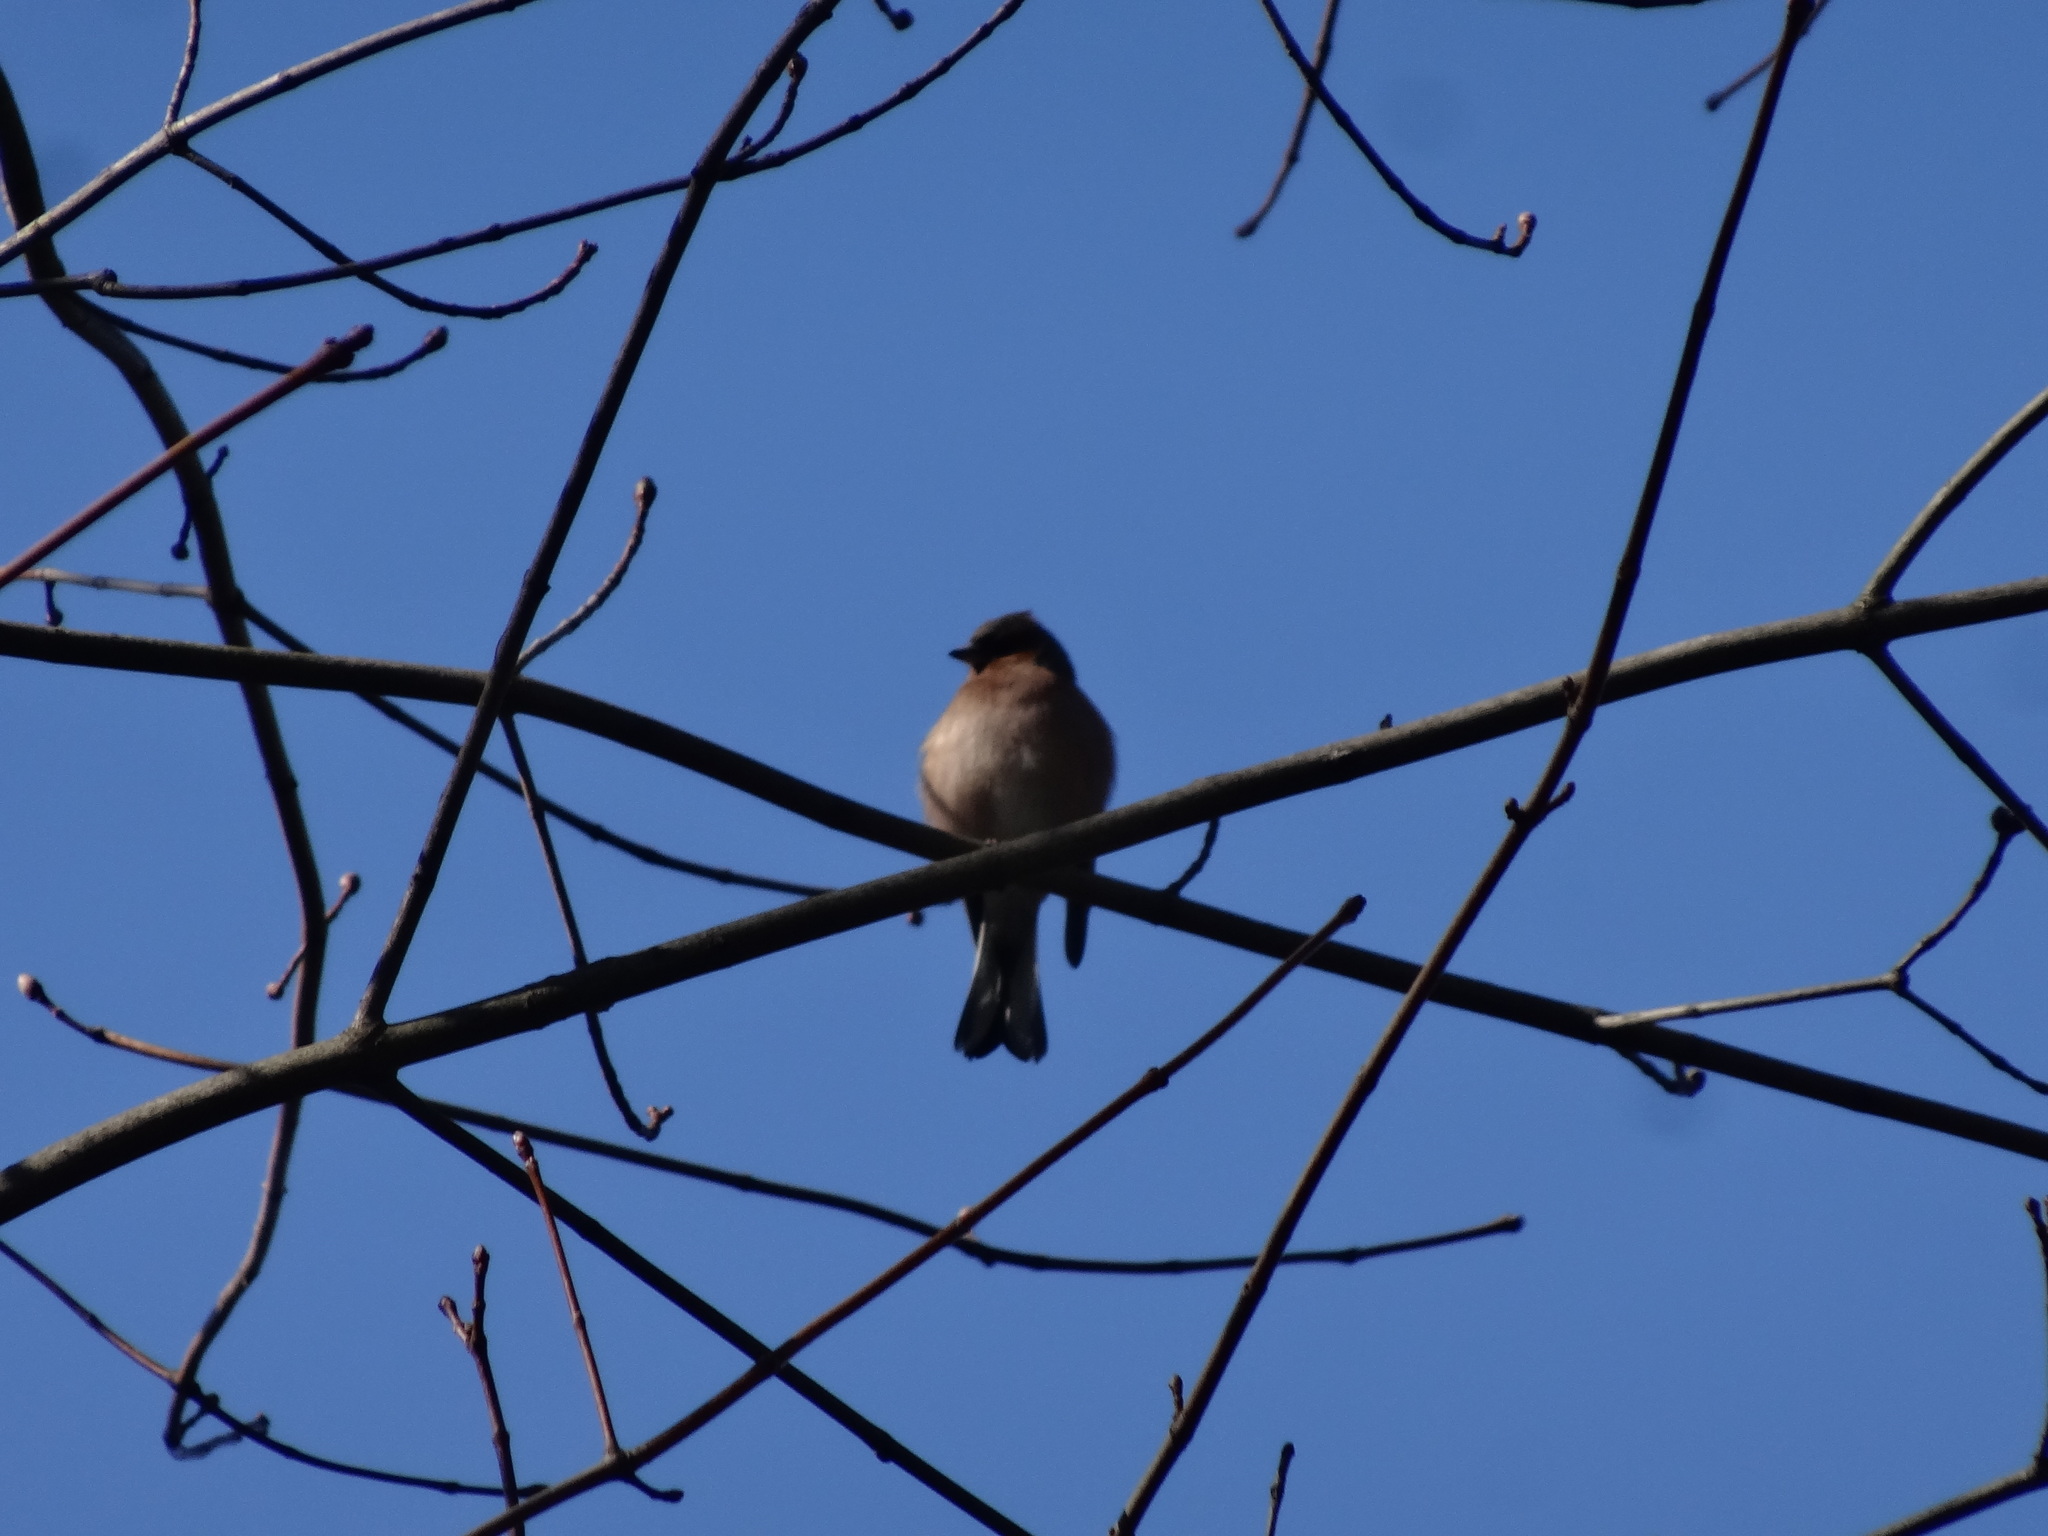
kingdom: Animalia
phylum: Chordata
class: Aves
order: Passeriformes
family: Fringillidae
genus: Fringilla
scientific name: Fringilla coelebs
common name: Common chaffinch
